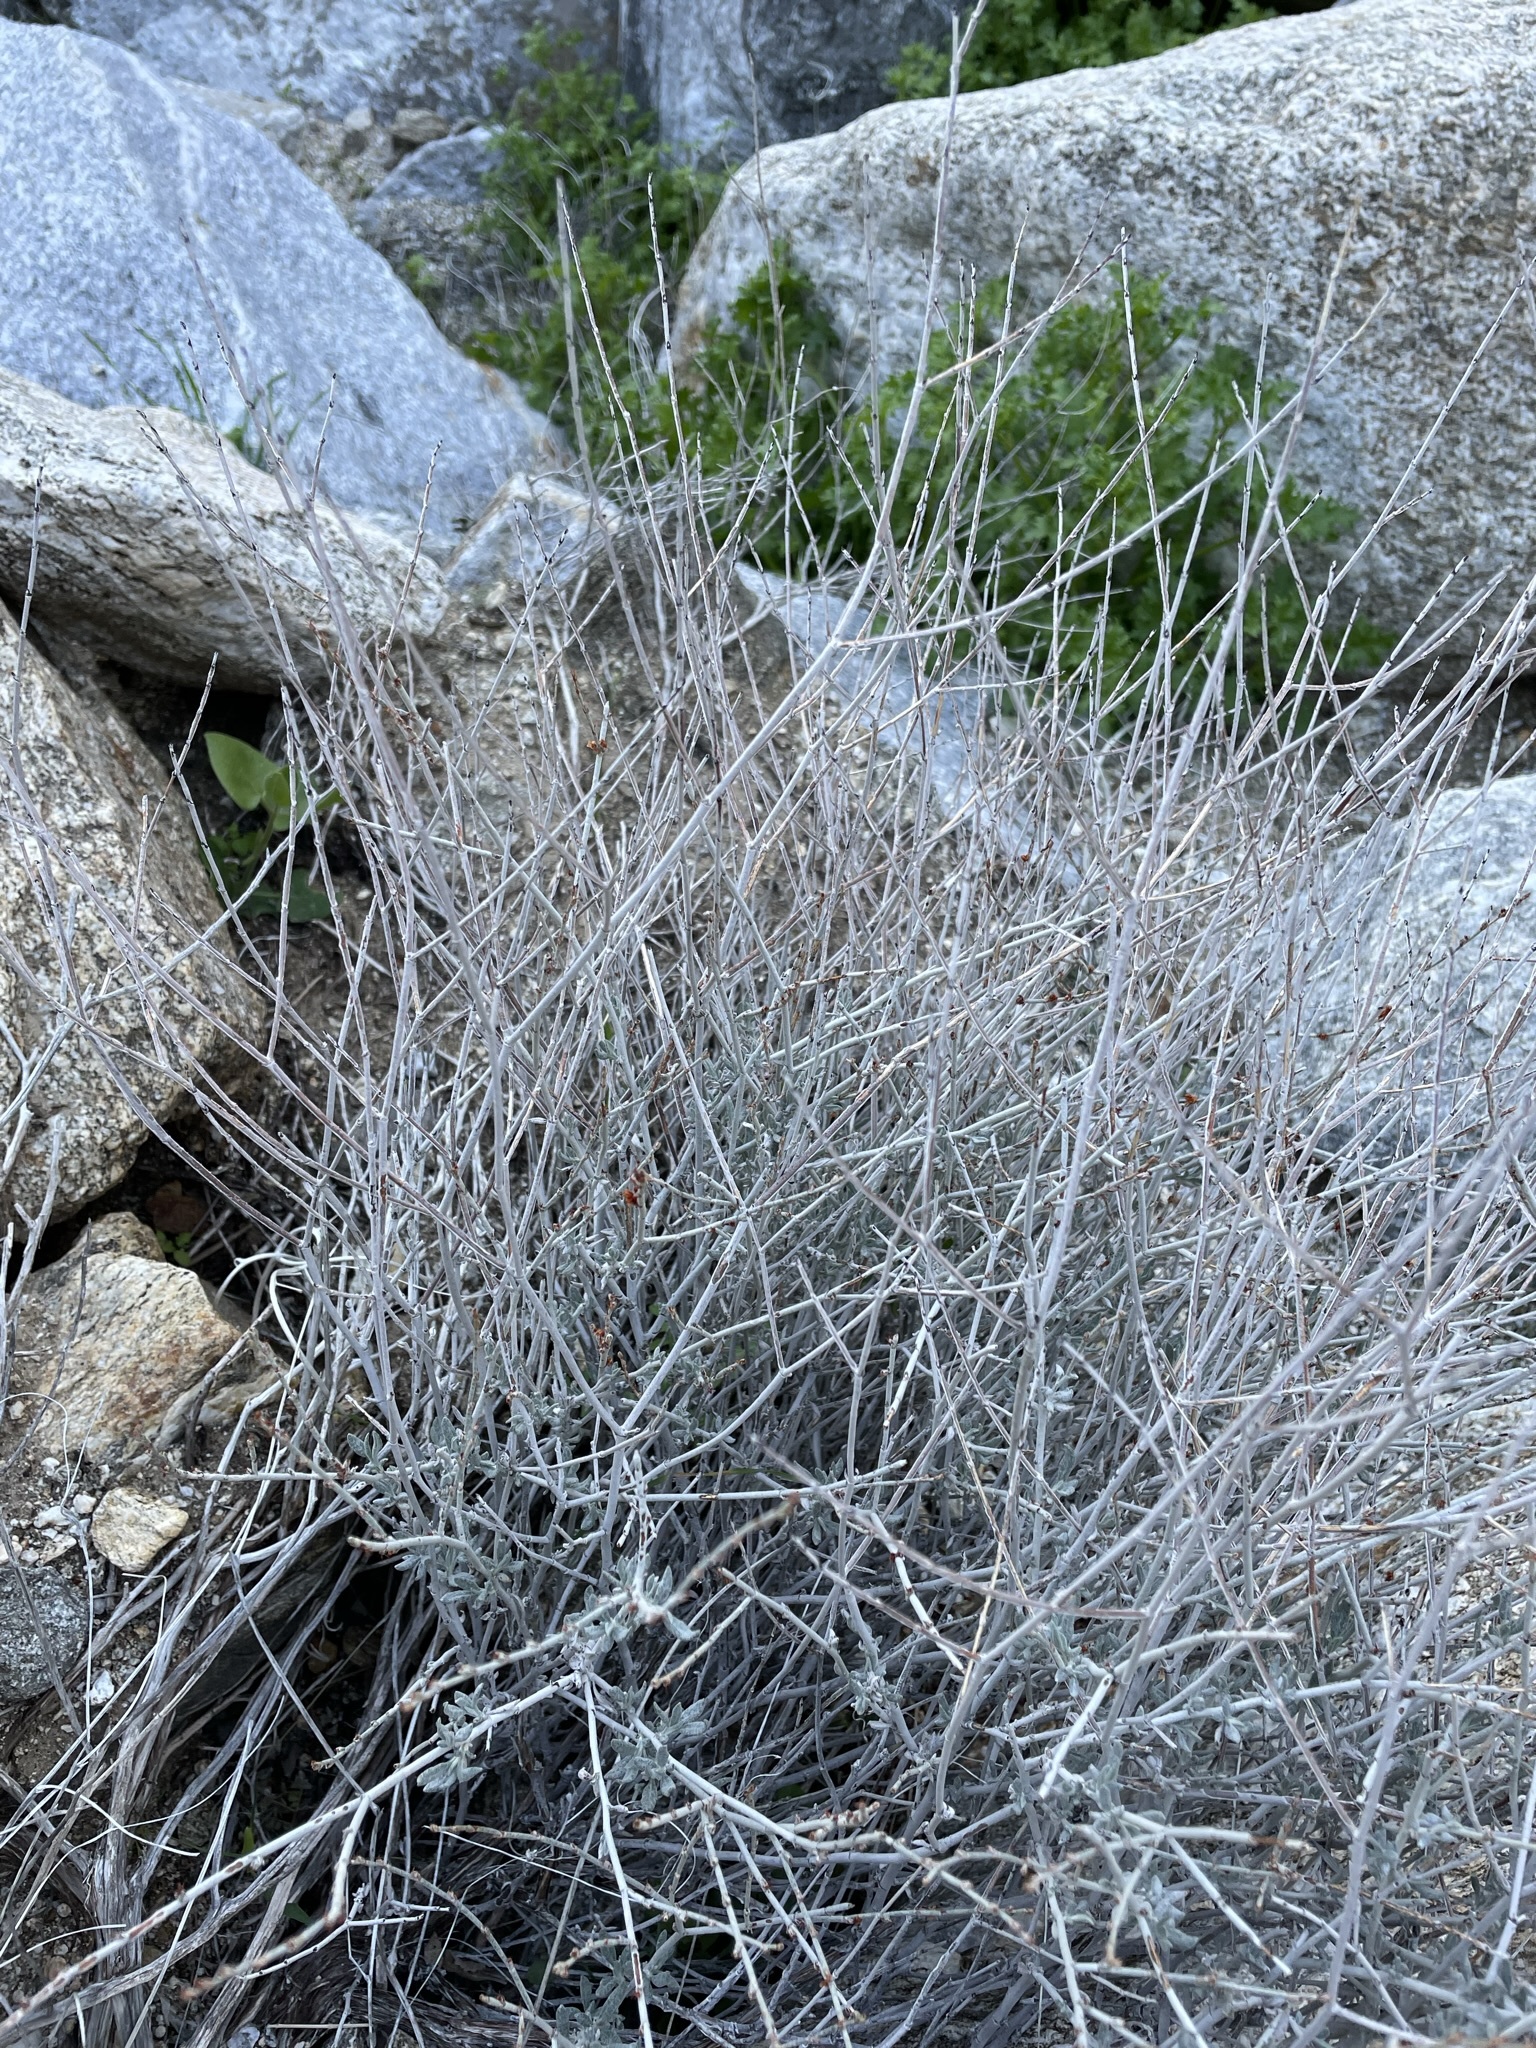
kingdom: Plantae
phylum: Tracheophyta
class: Magnoliopsida
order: Caryophyllales
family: Polygonaceae
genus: Eriogonum
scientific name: Eriogonum wrightii
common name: Bastard-sage
